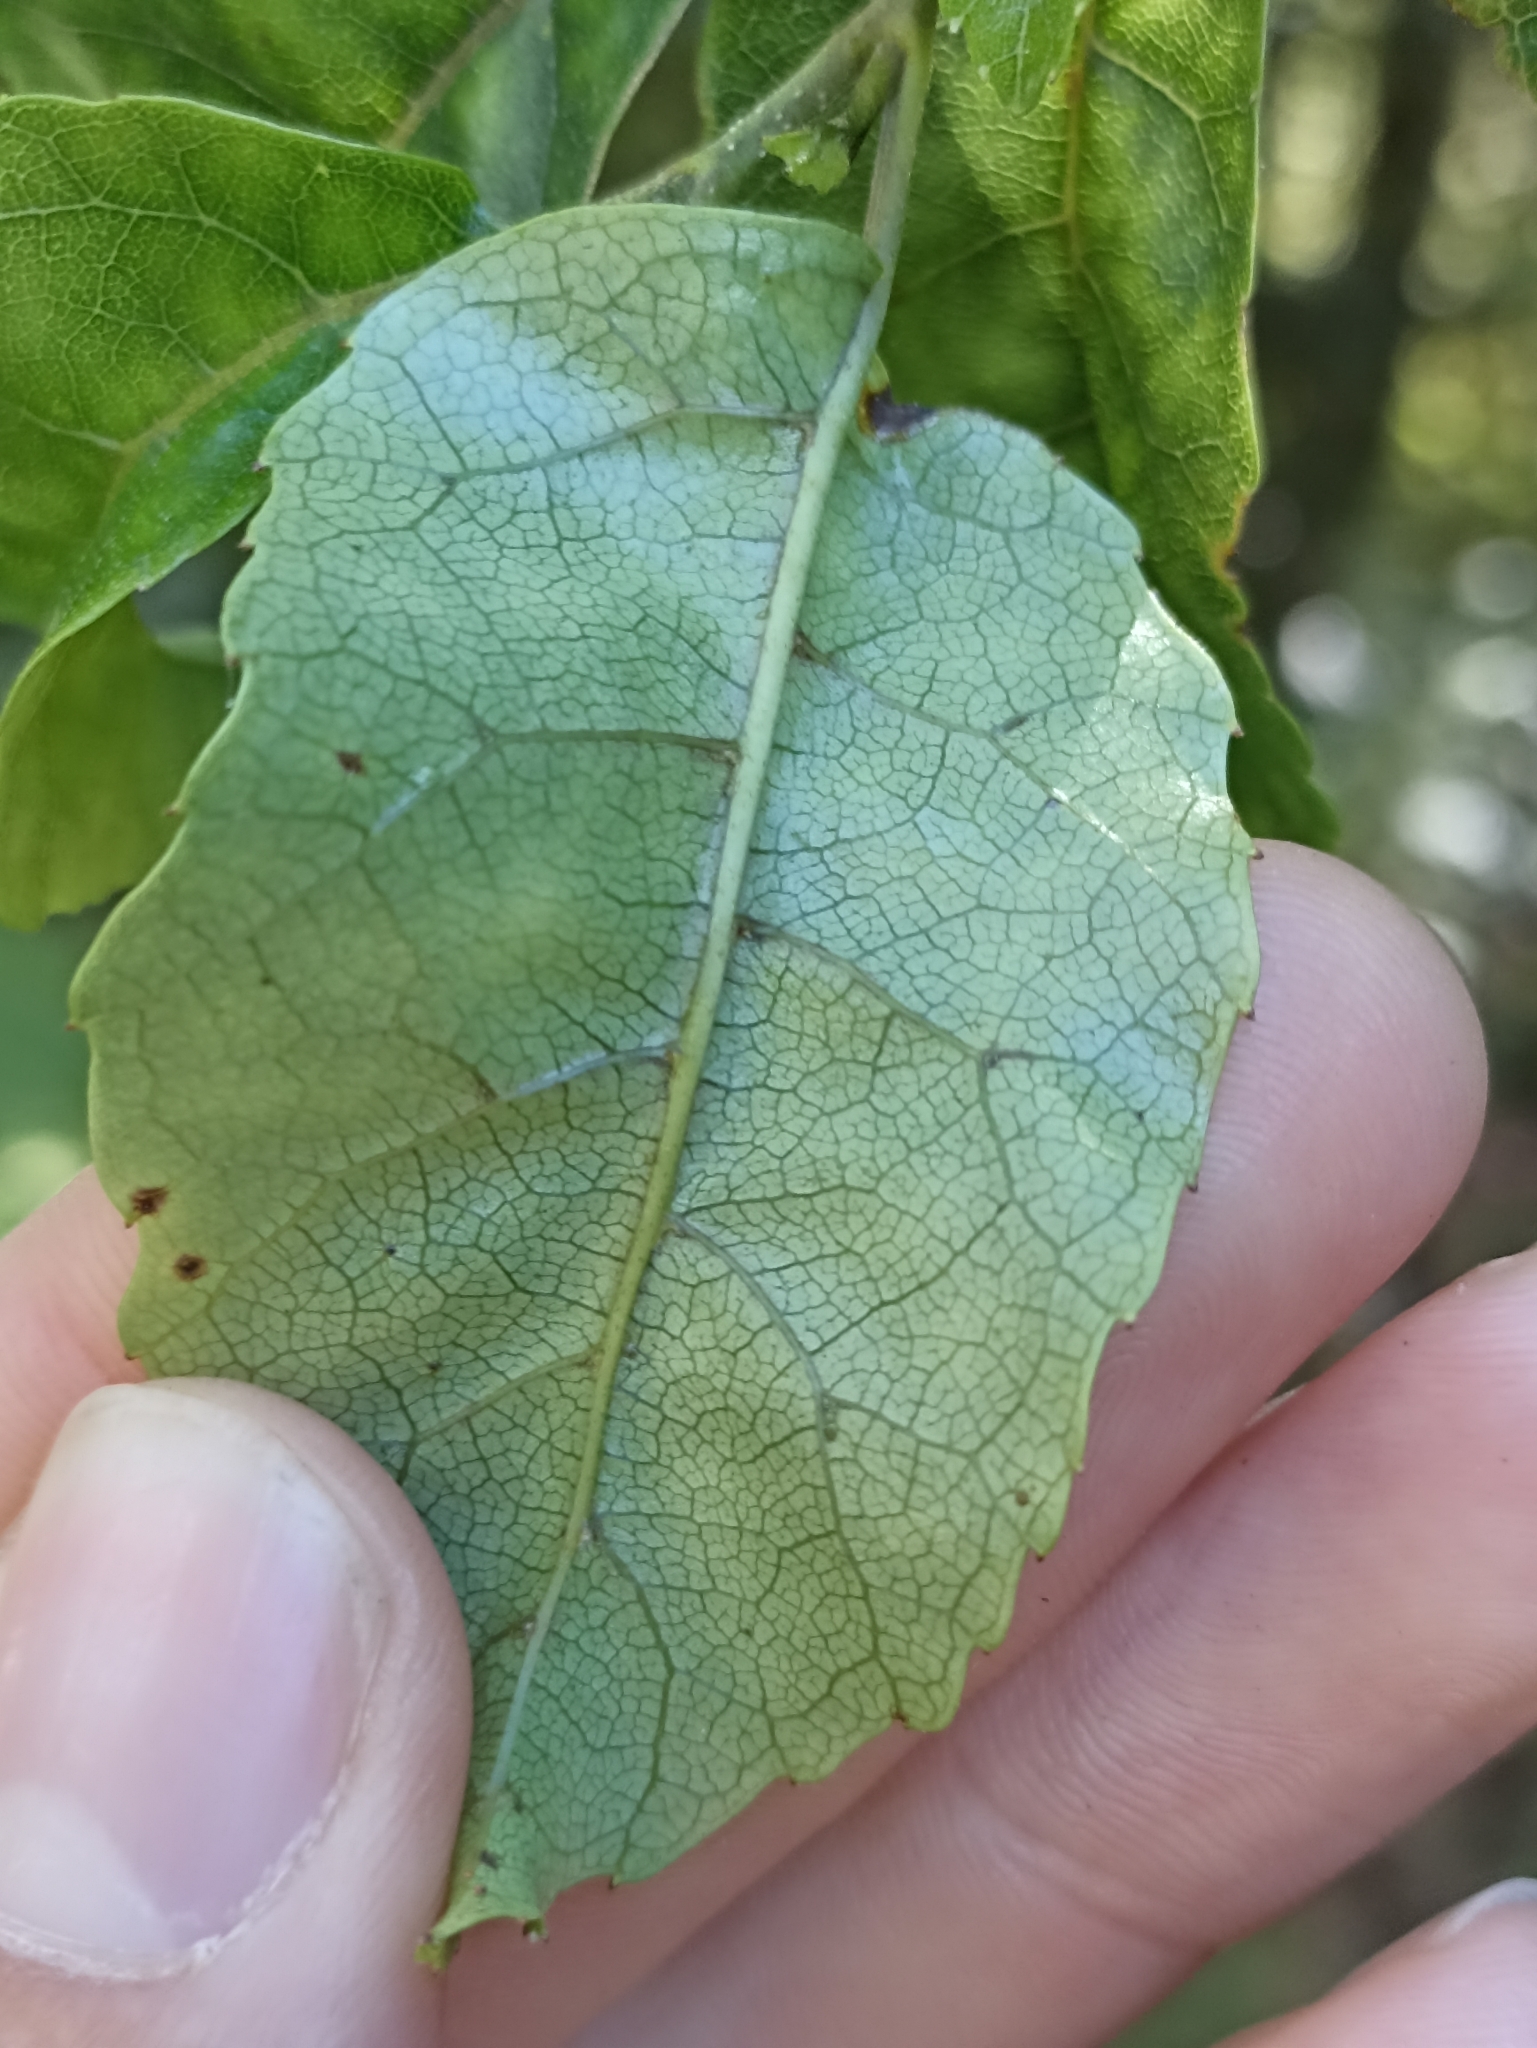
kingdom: Plantae
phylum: Tracheophyta
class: Magnoliopsida
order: Asterales
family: Rousseaceae
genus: Carpodetus
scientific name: Carpodetus serratus
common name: White mapau
